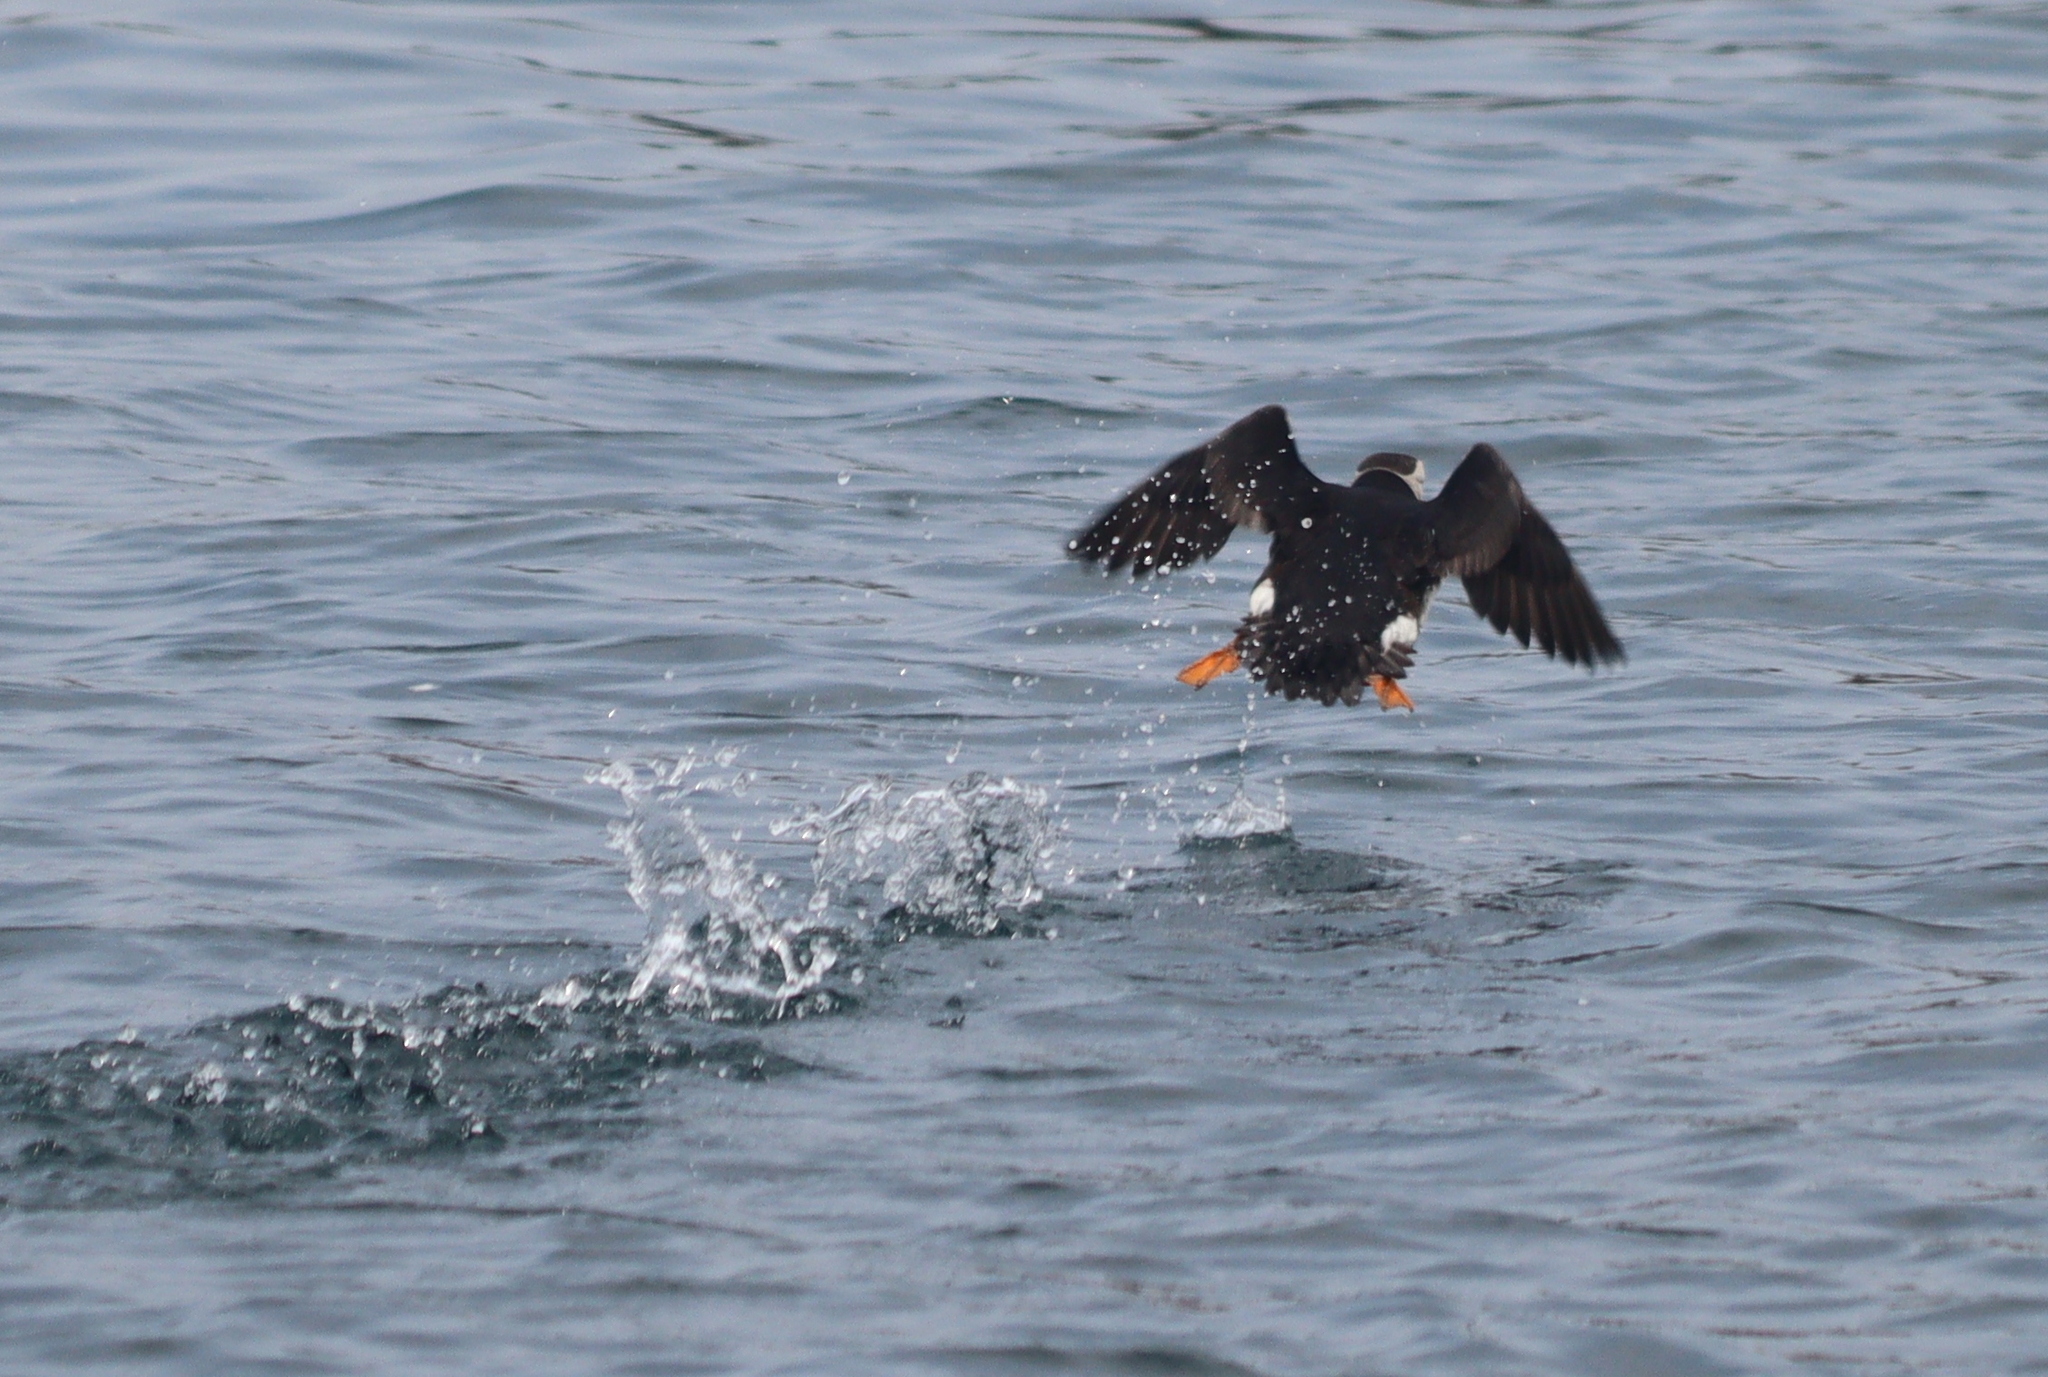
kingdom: Animalia
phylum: Chordata
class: Aves
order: Charadriiformes
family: Alcidae
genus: Fratercula
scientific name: Fratercula arctica
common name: Atlantic puffin
